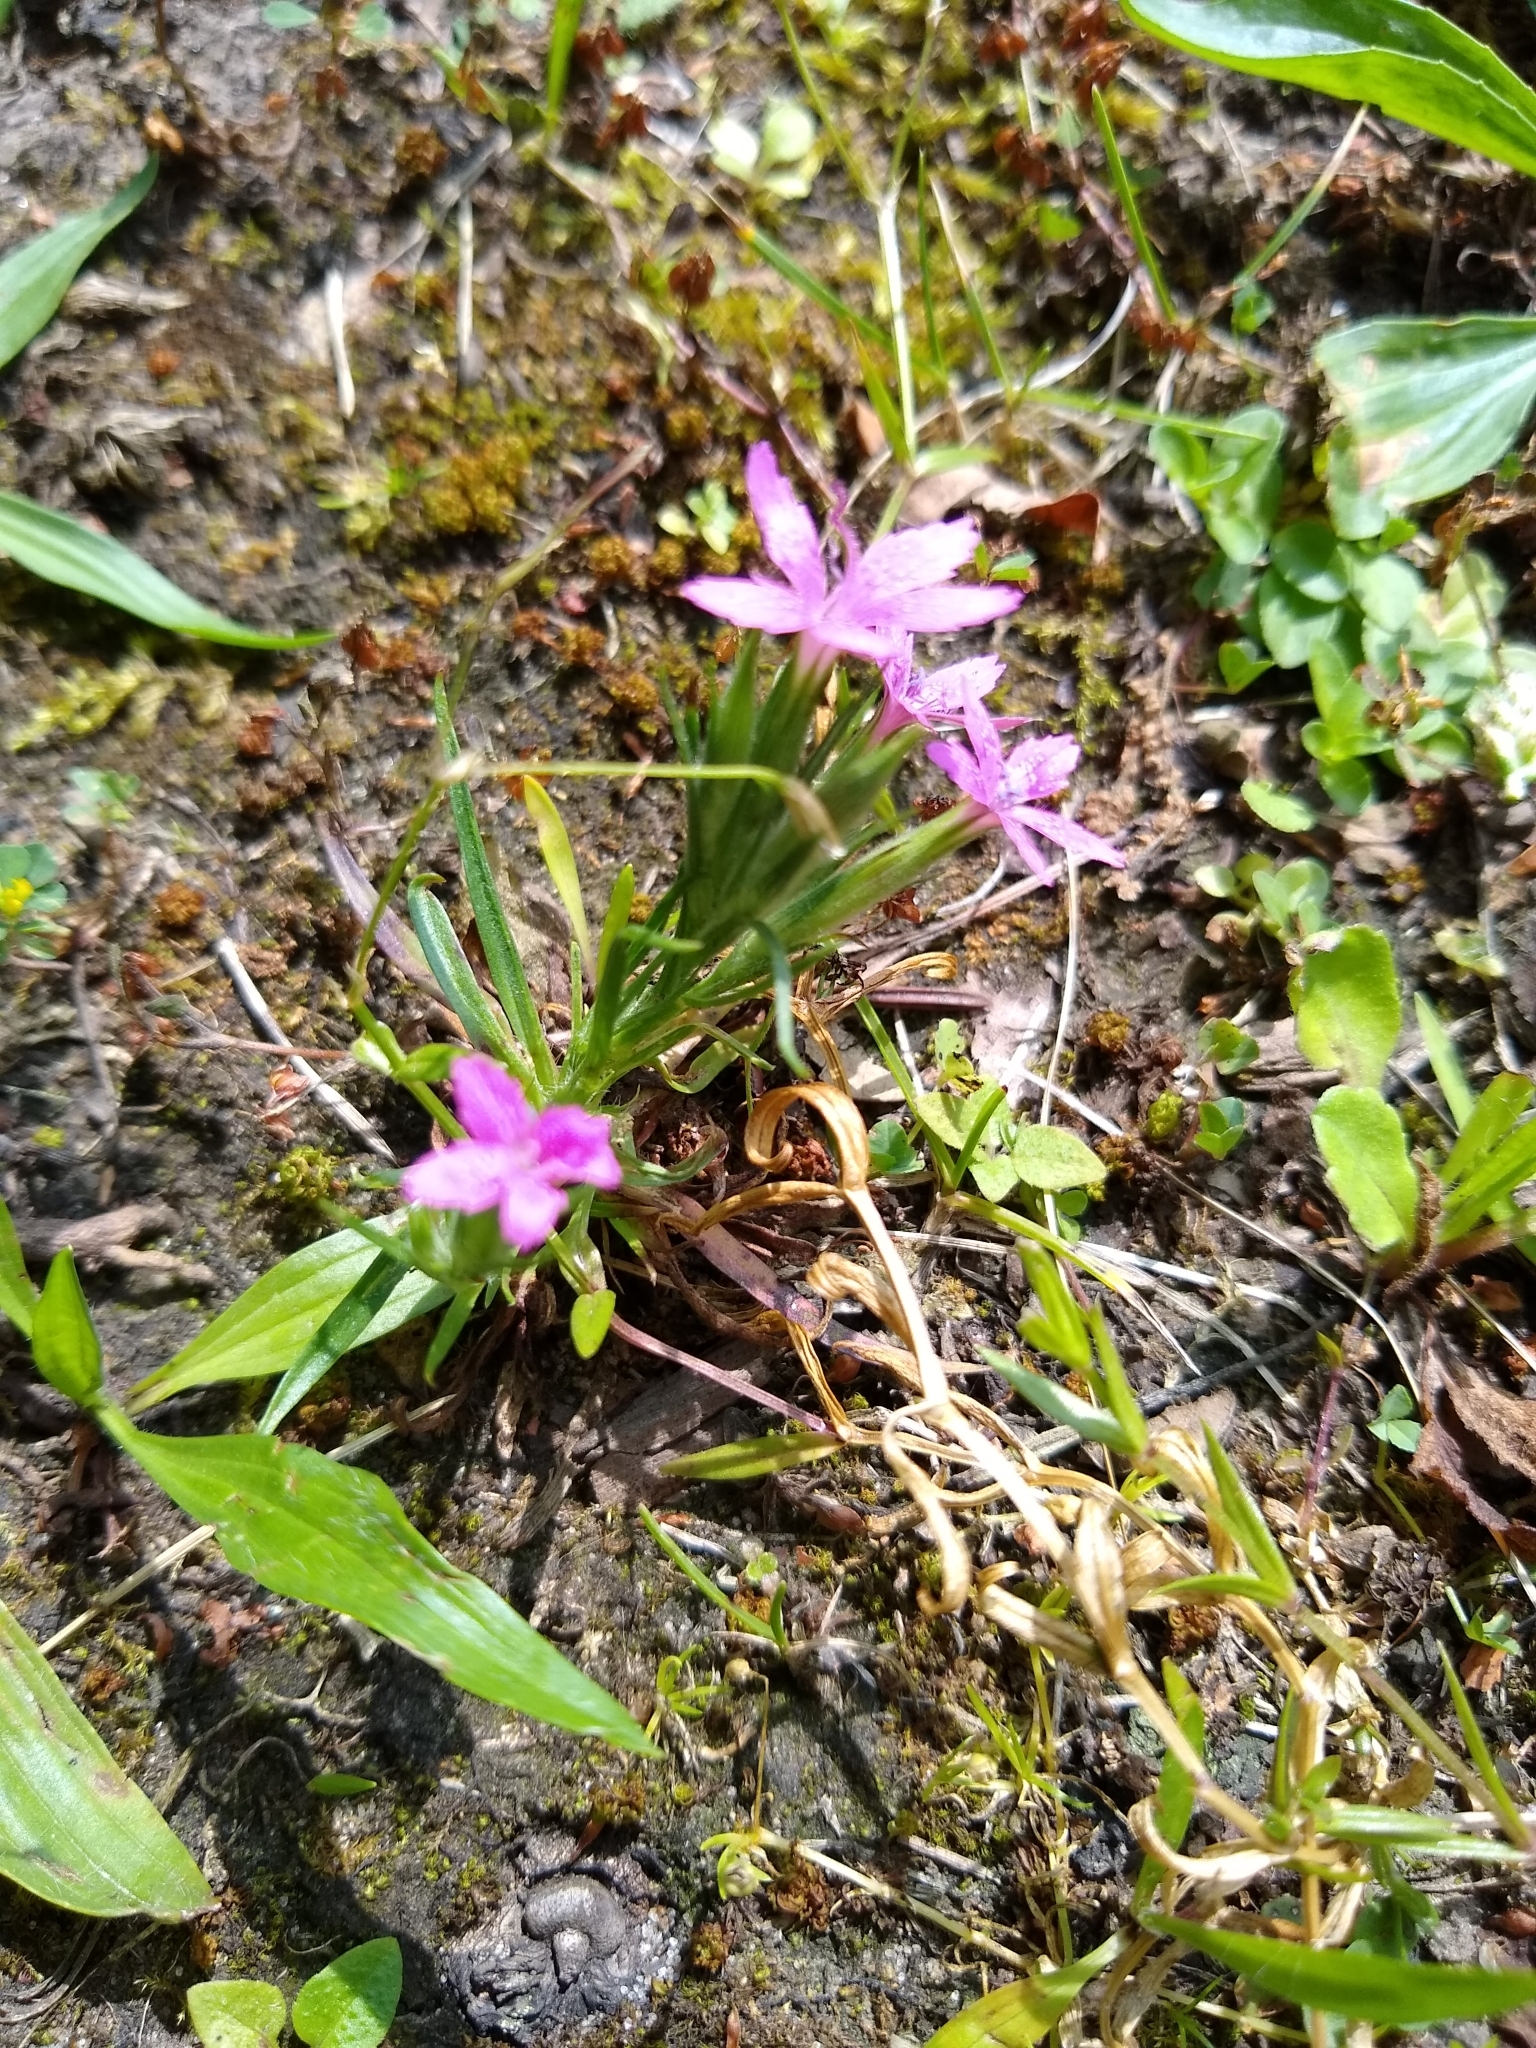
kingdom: Plantae
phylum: Tracheophyta
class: Magnoliopsida
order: Caryophyllales
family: Caryophyllaceae
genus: Dianthus
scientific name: Dianthus armeria
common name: Deptford pink
